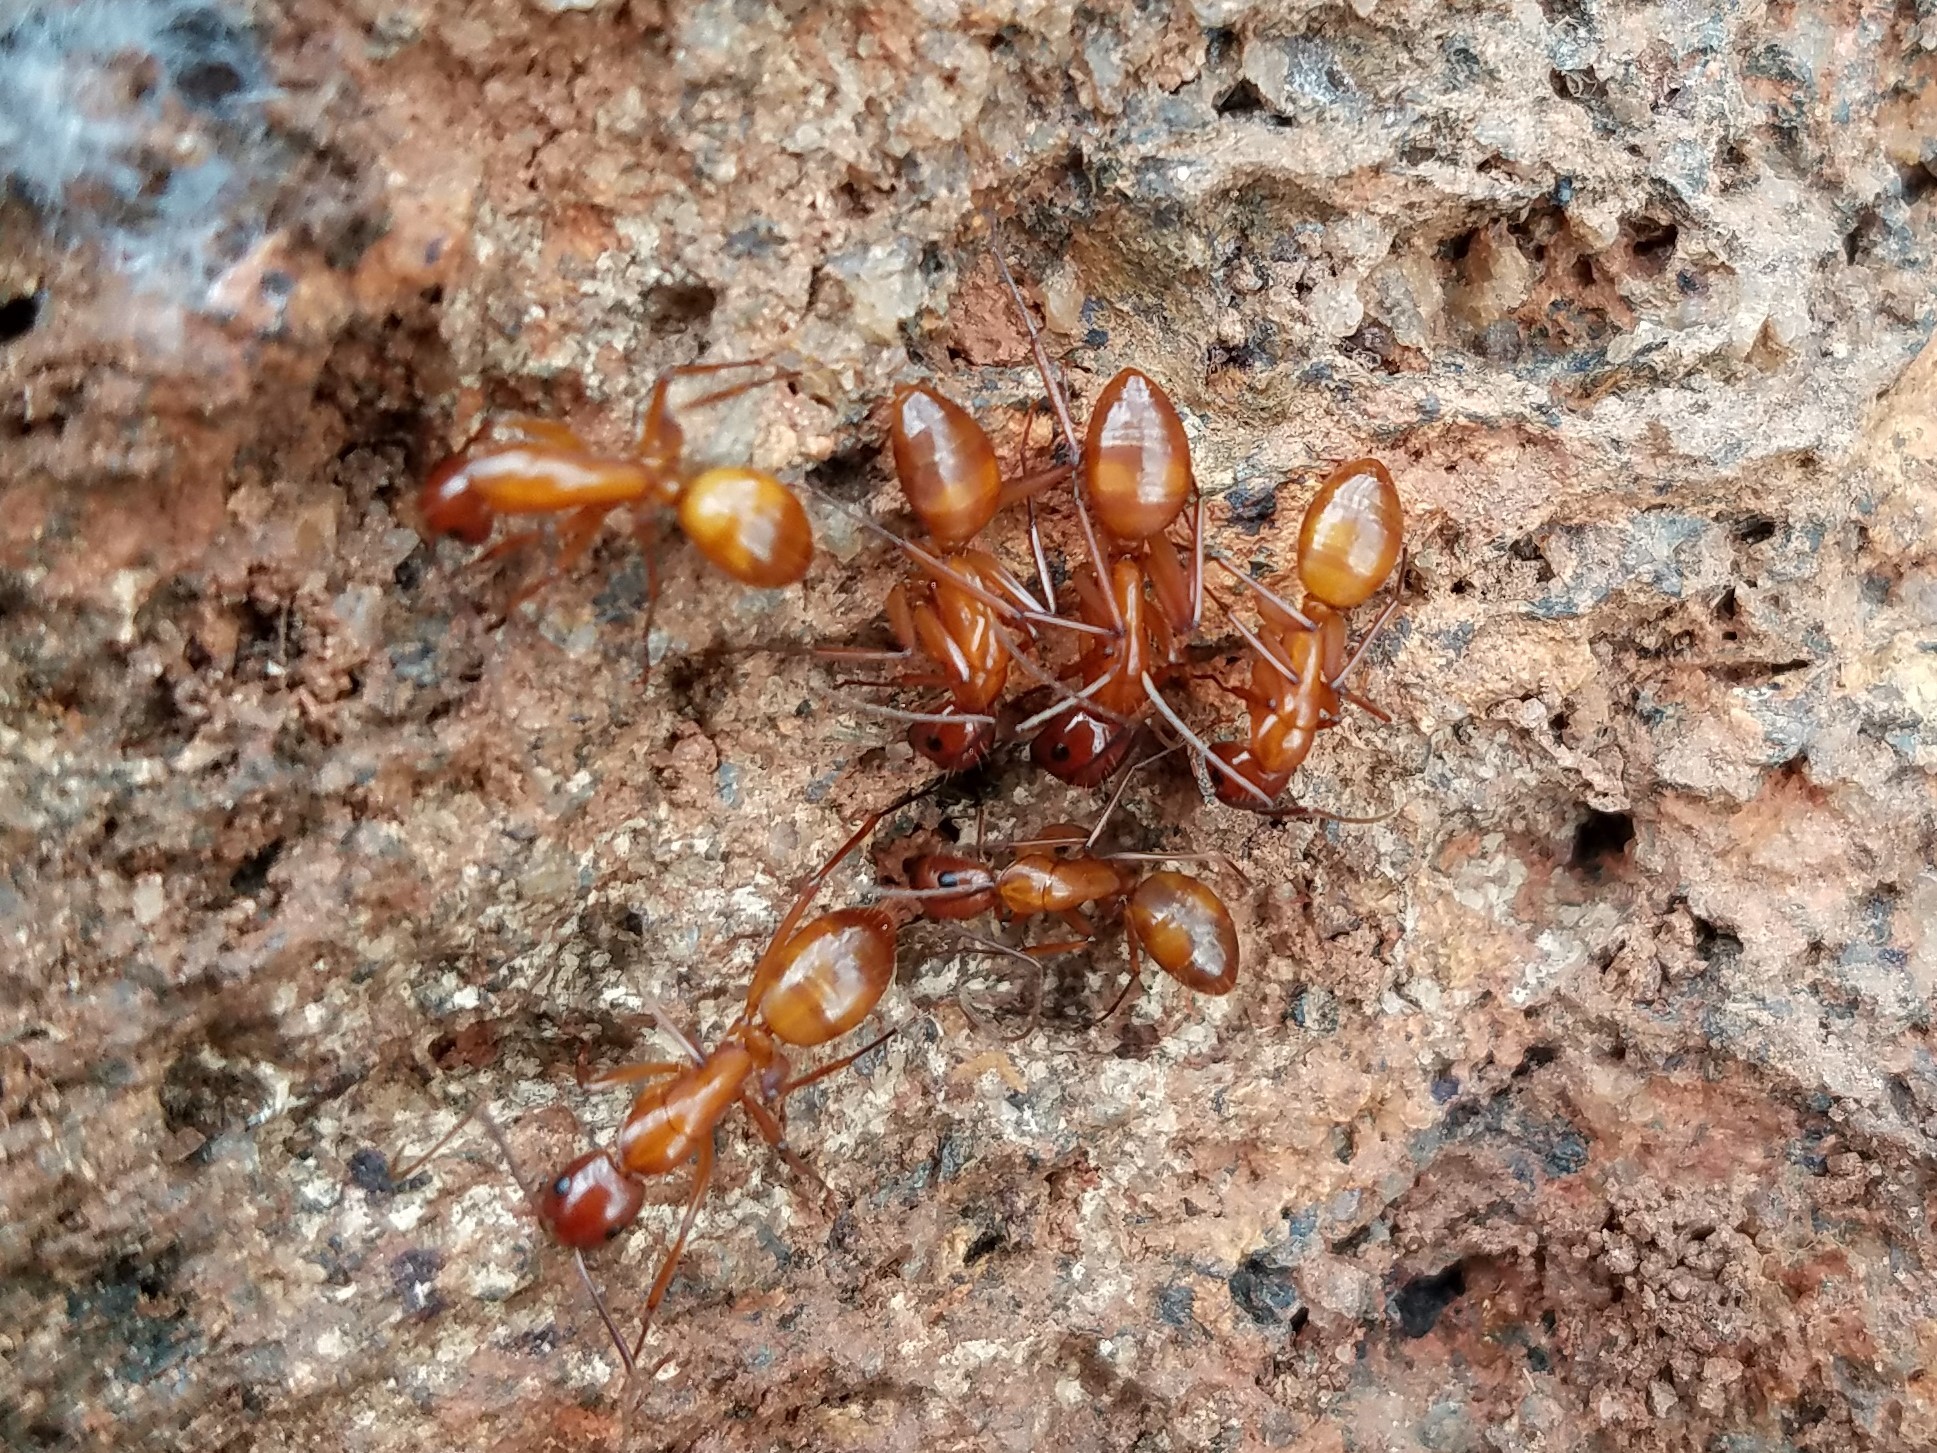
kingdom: Animalia
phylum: Arthropoda
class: Insecta
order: Hymenoptera
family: Formicidae
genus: Camponotus
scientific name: Camponotus castaneus
